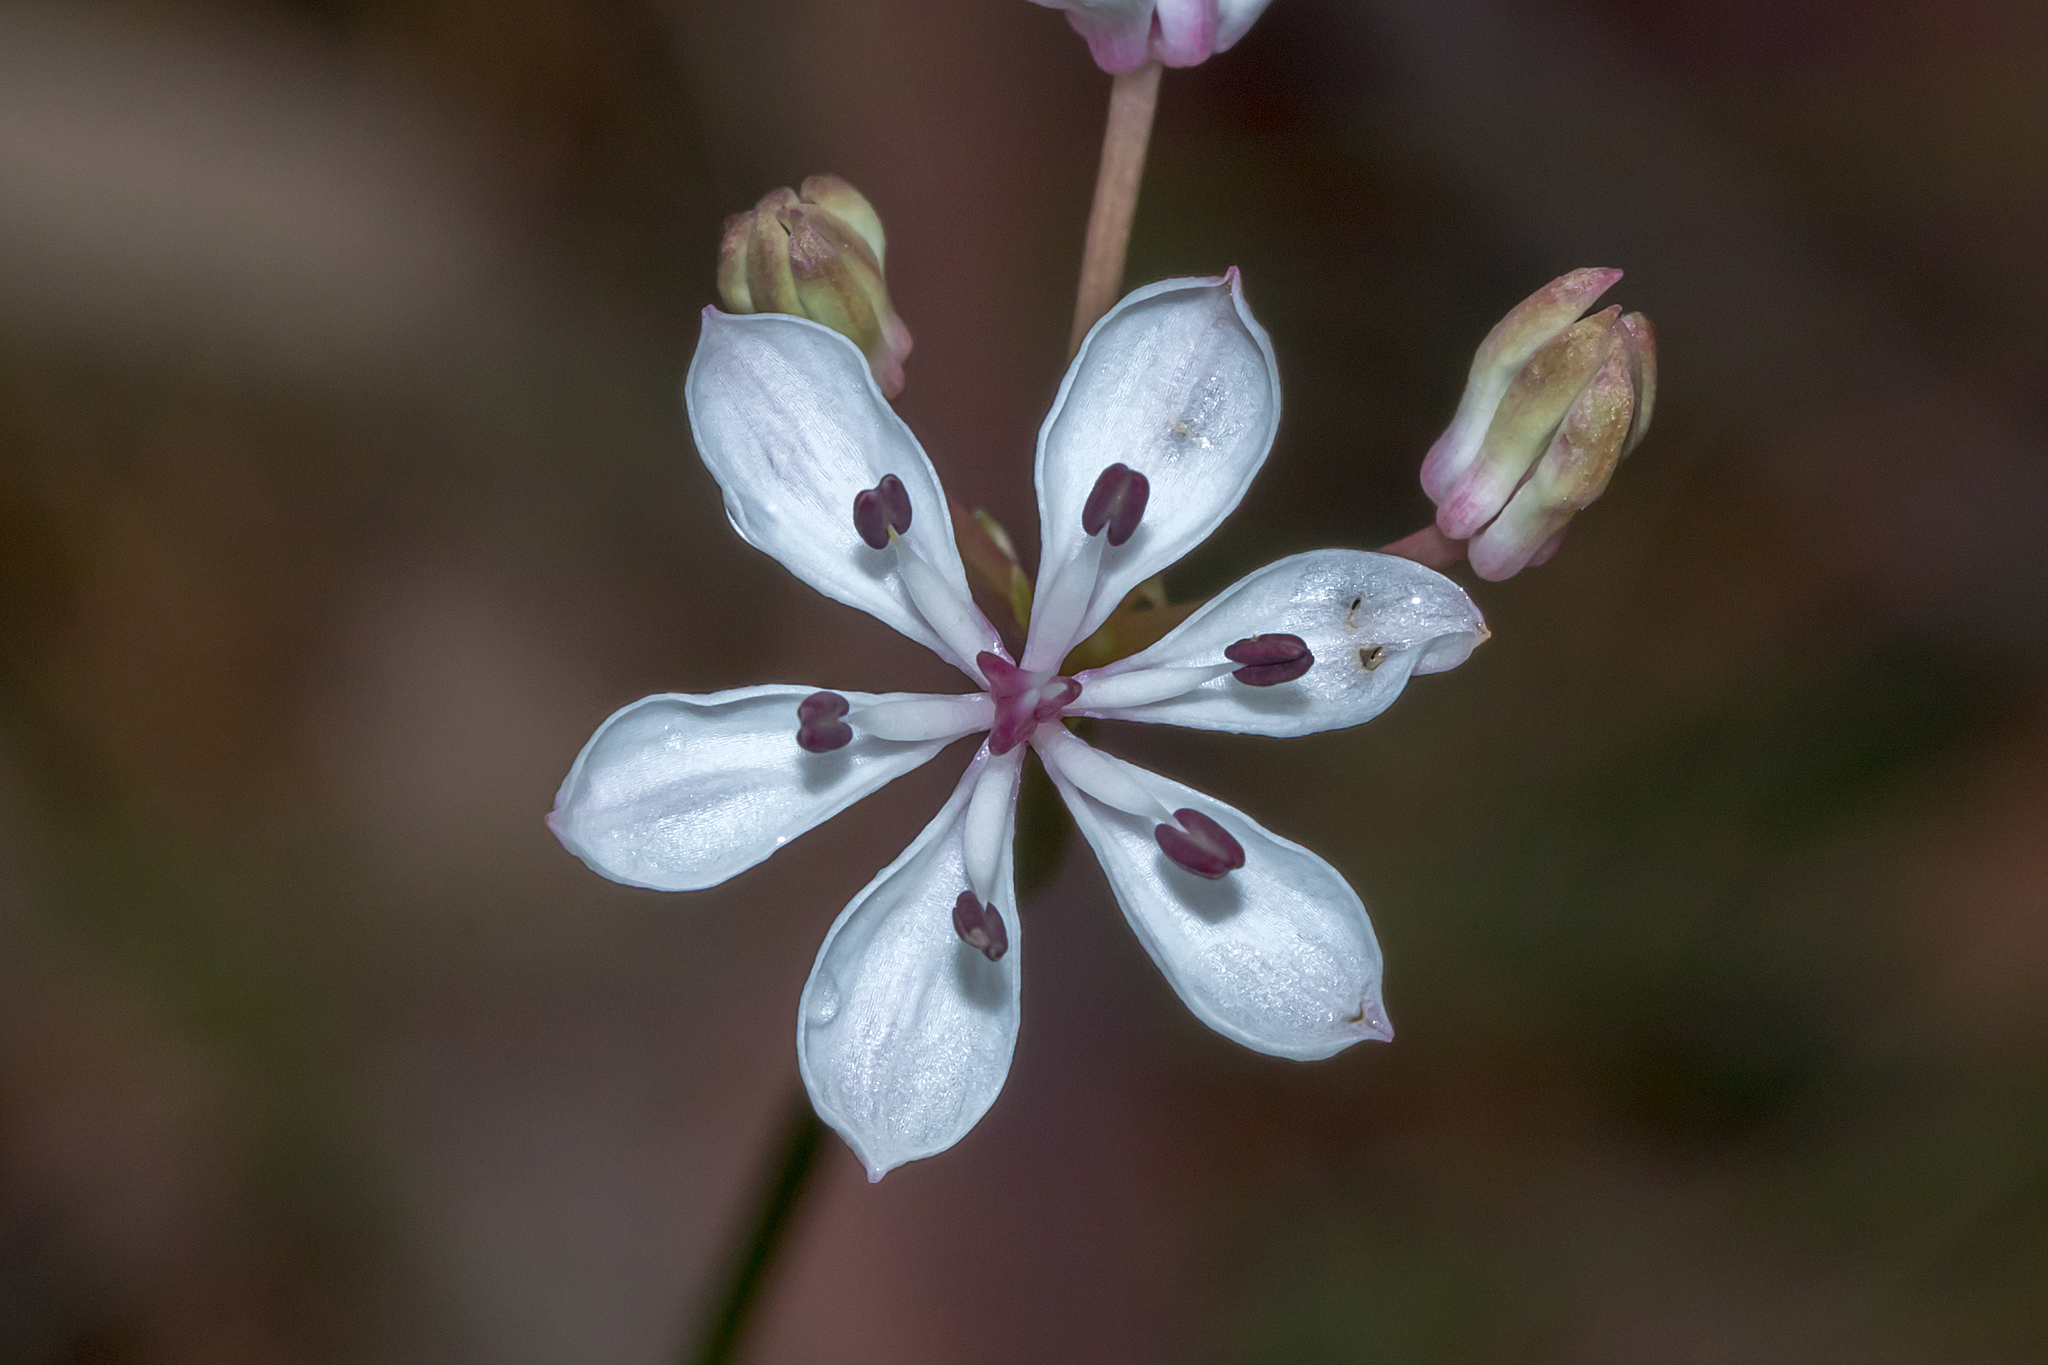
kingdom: Plantae
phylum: Tracheophyta
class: Liliopsida
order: Liliales
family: Colchicaceae
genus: Burchardia
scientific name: Burchardia umbellata
